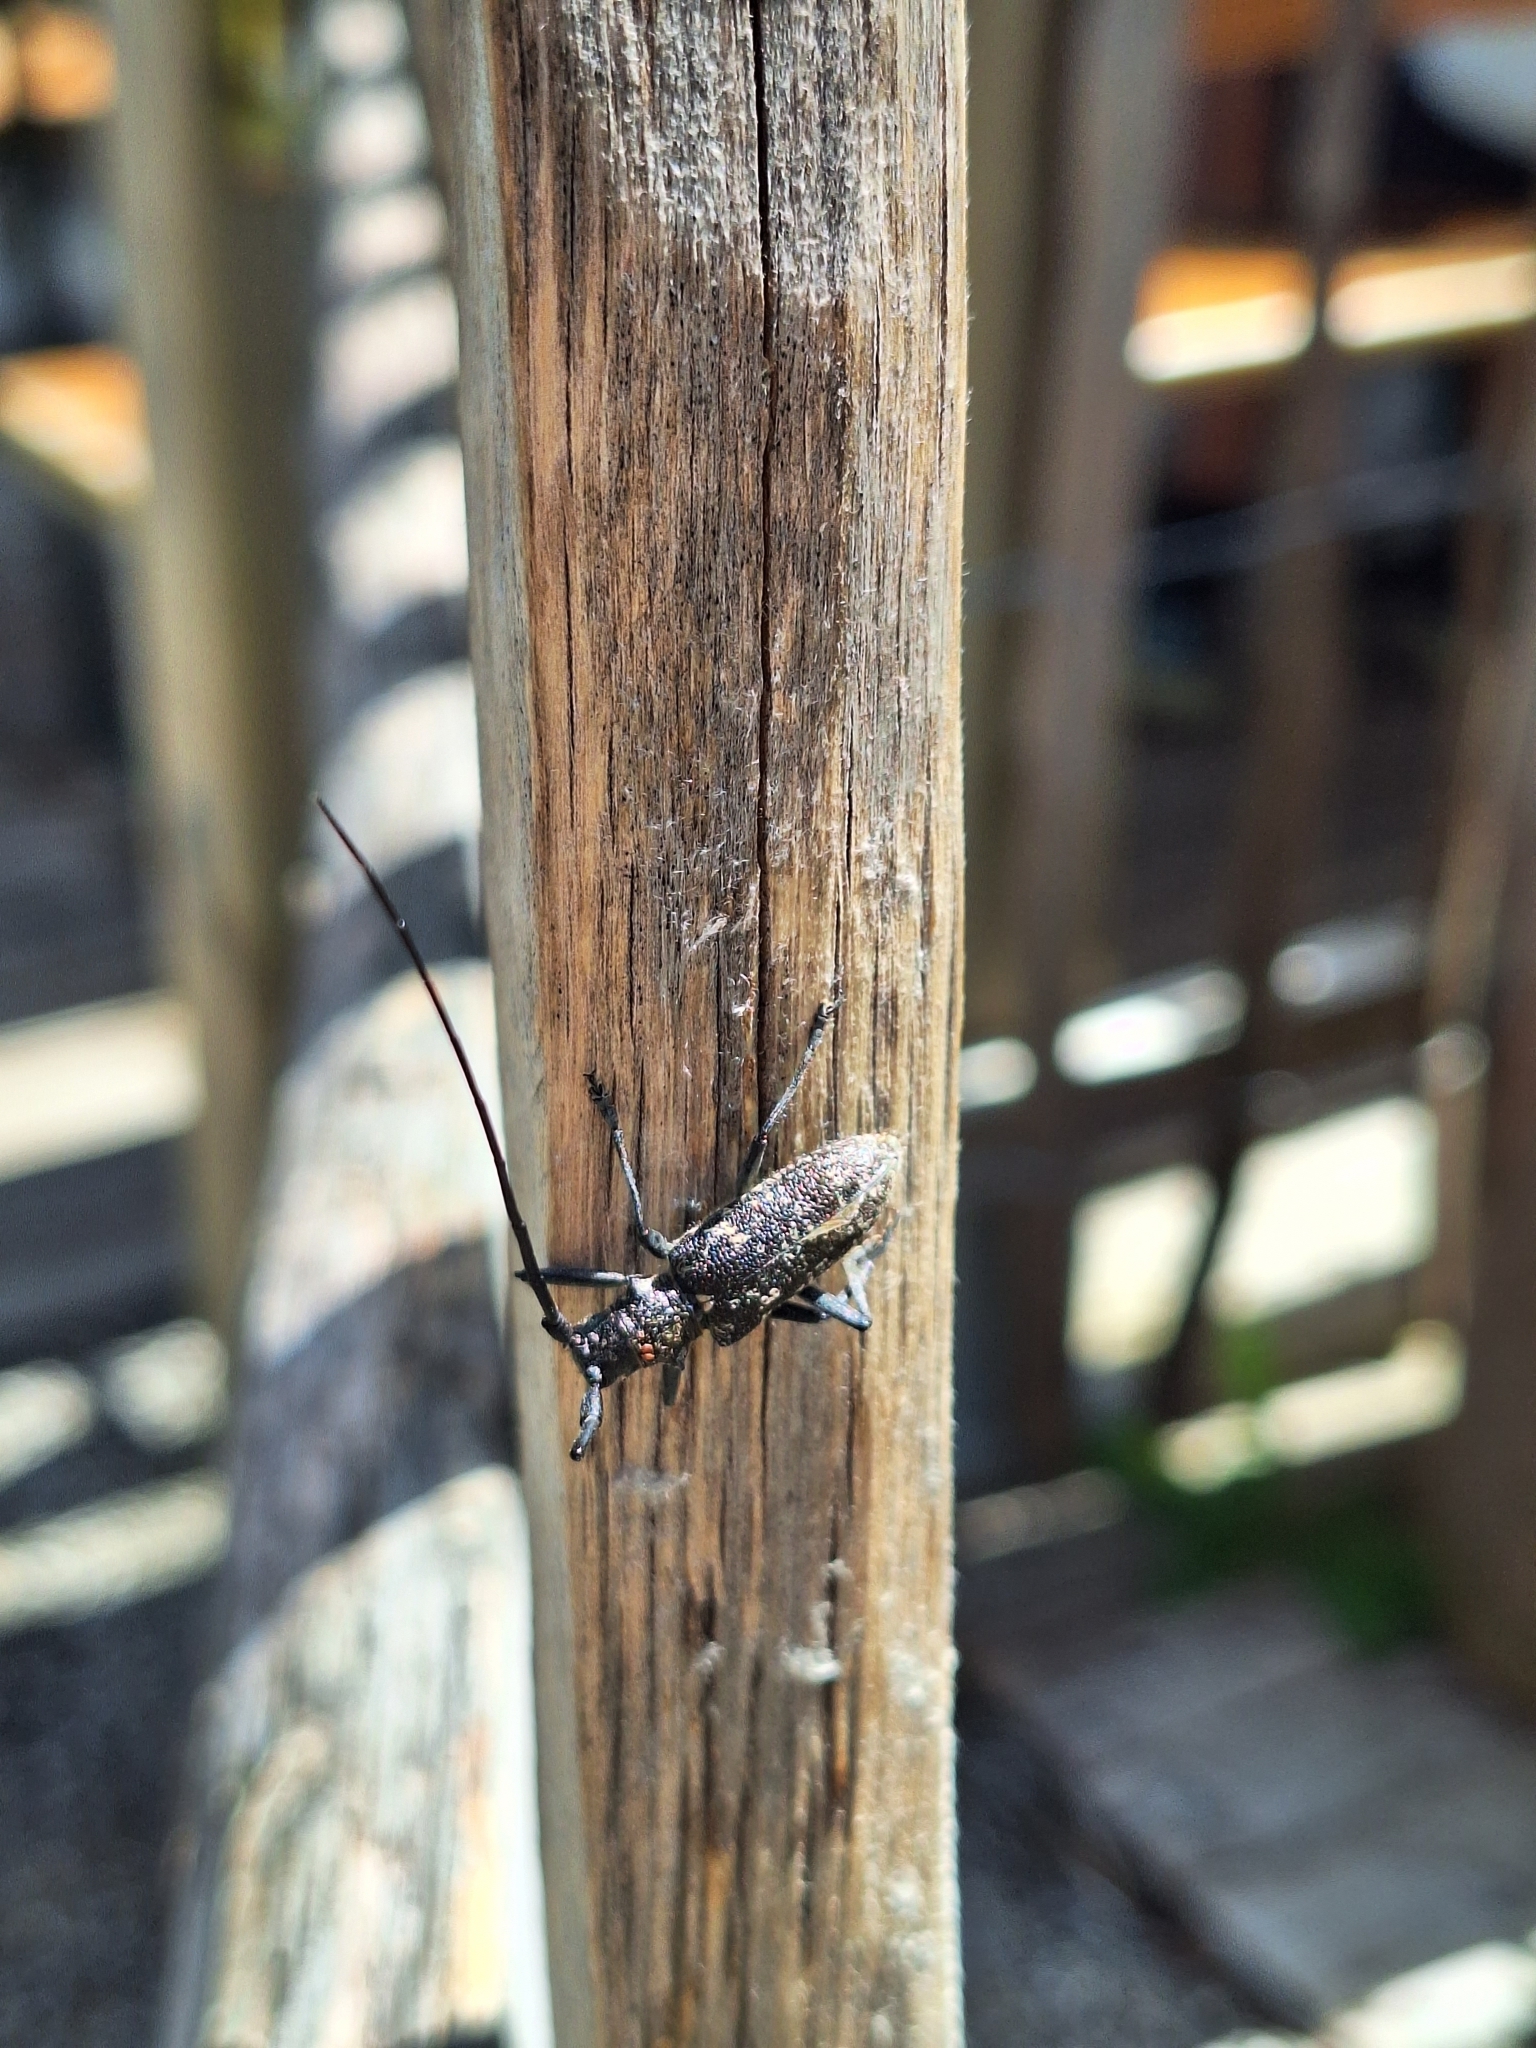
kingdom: Animalia
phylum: Arthropoda
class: Insecta
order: Coleoptera
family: Cerambycidae
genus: Monochamus
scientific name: Monochamus sutor
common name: Pine sawyer
